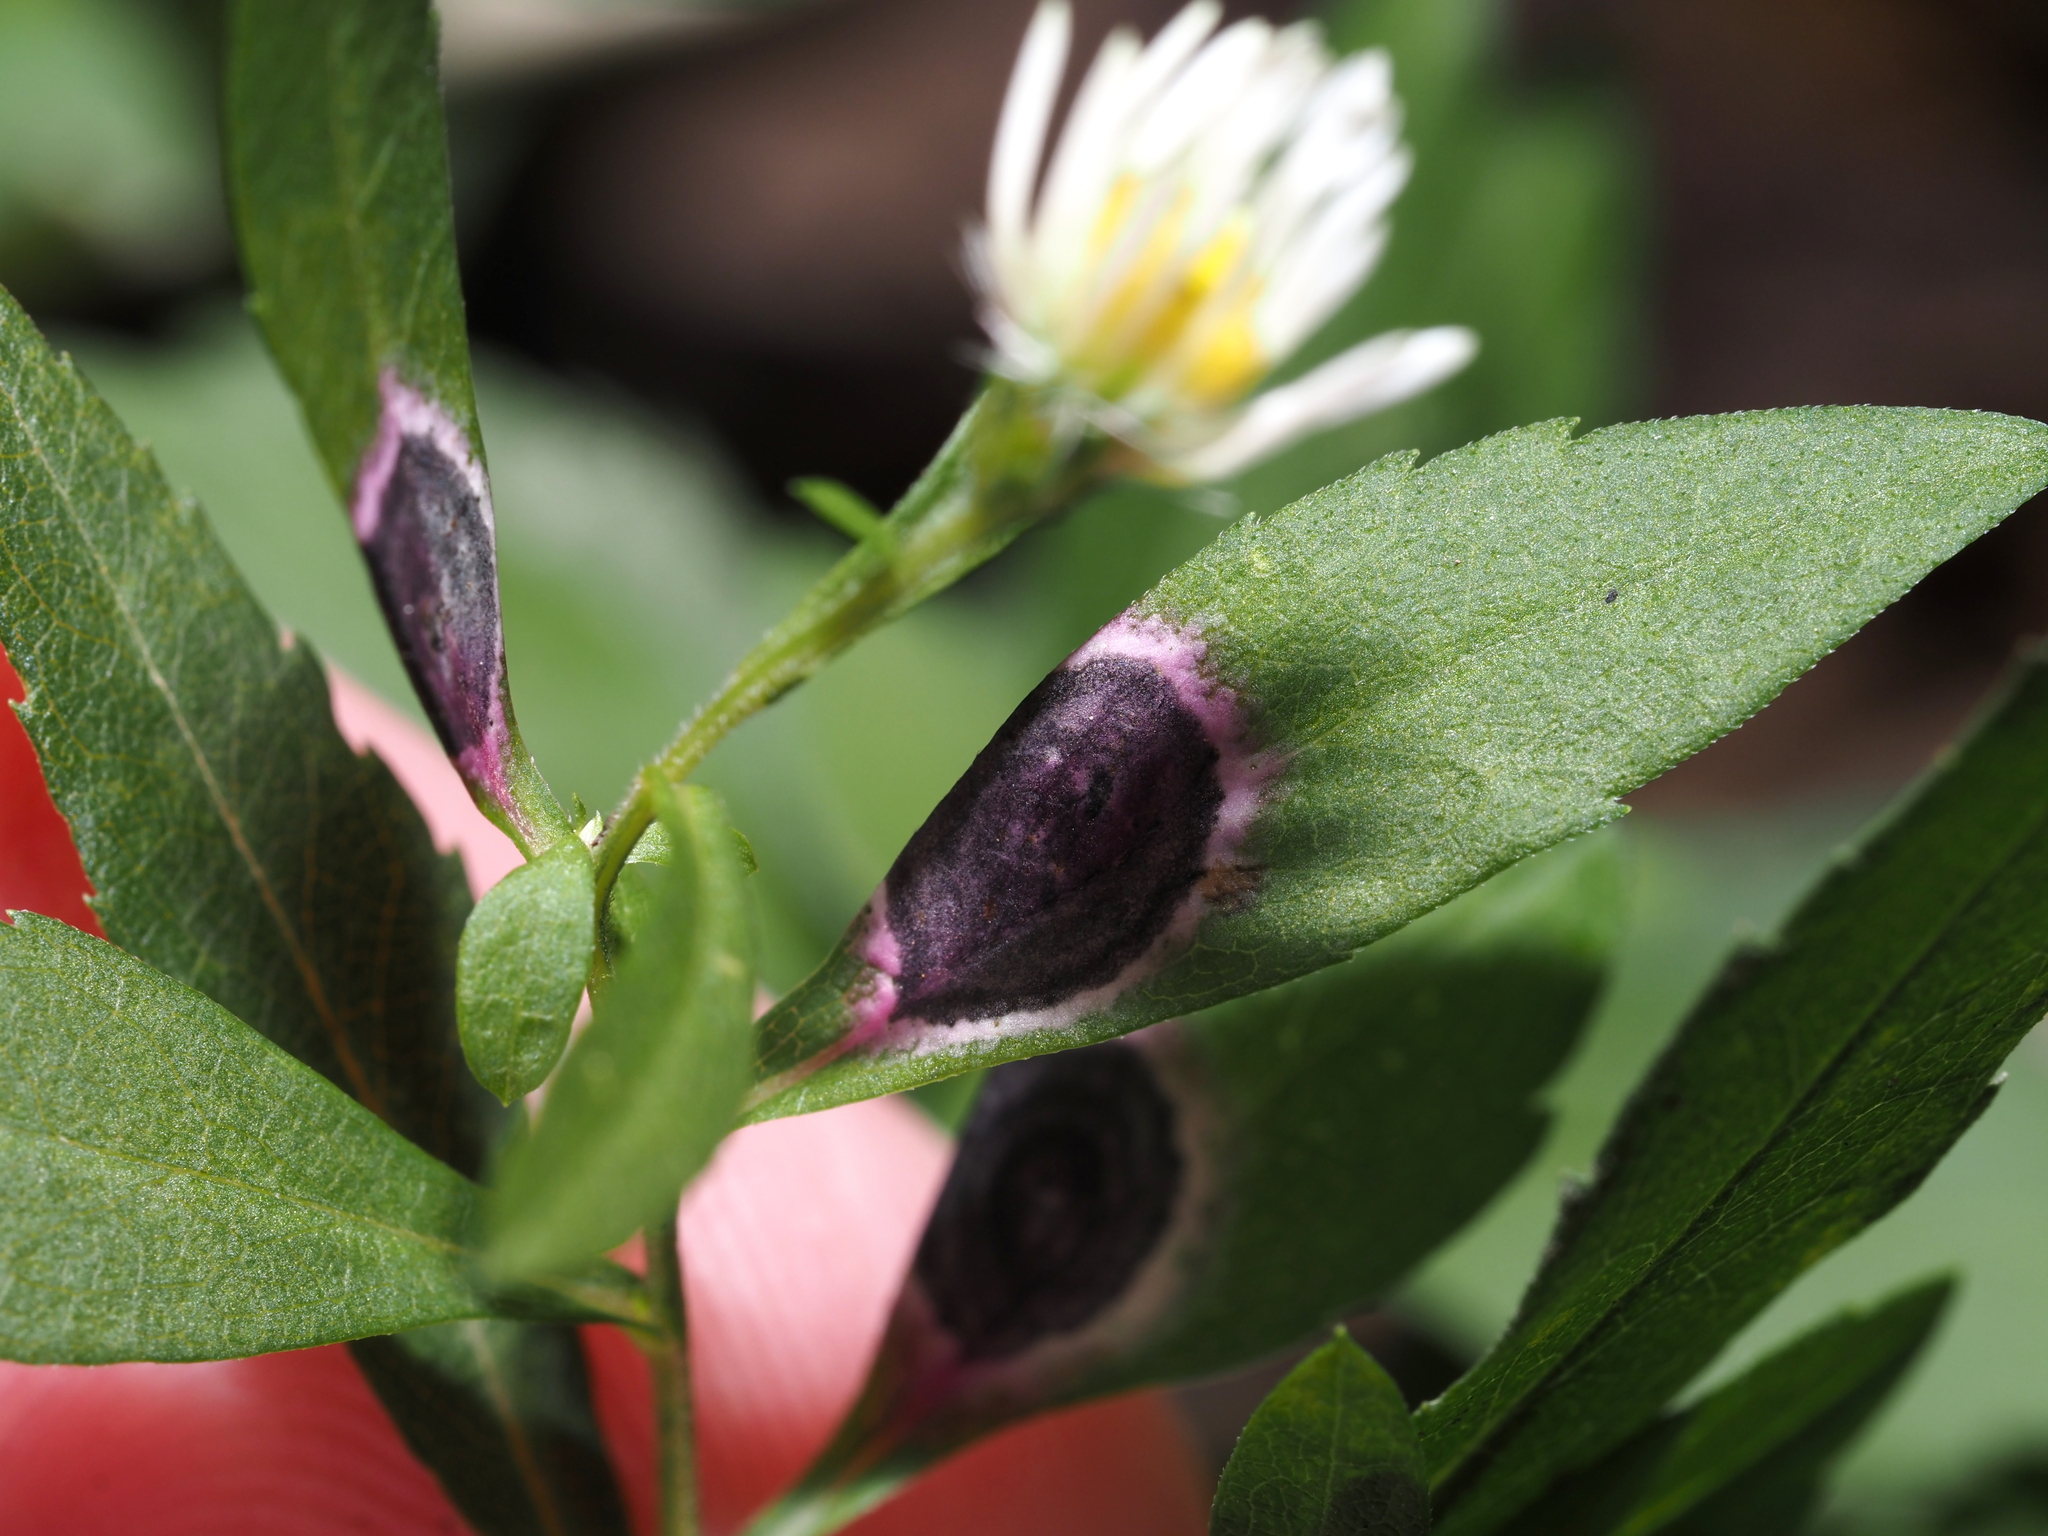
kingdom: Animalia
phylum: Arthropoda
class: Insecta
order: Diptera
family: Cecidomyiidae
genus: Asteromyia
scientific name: Asteromyia laeviana
